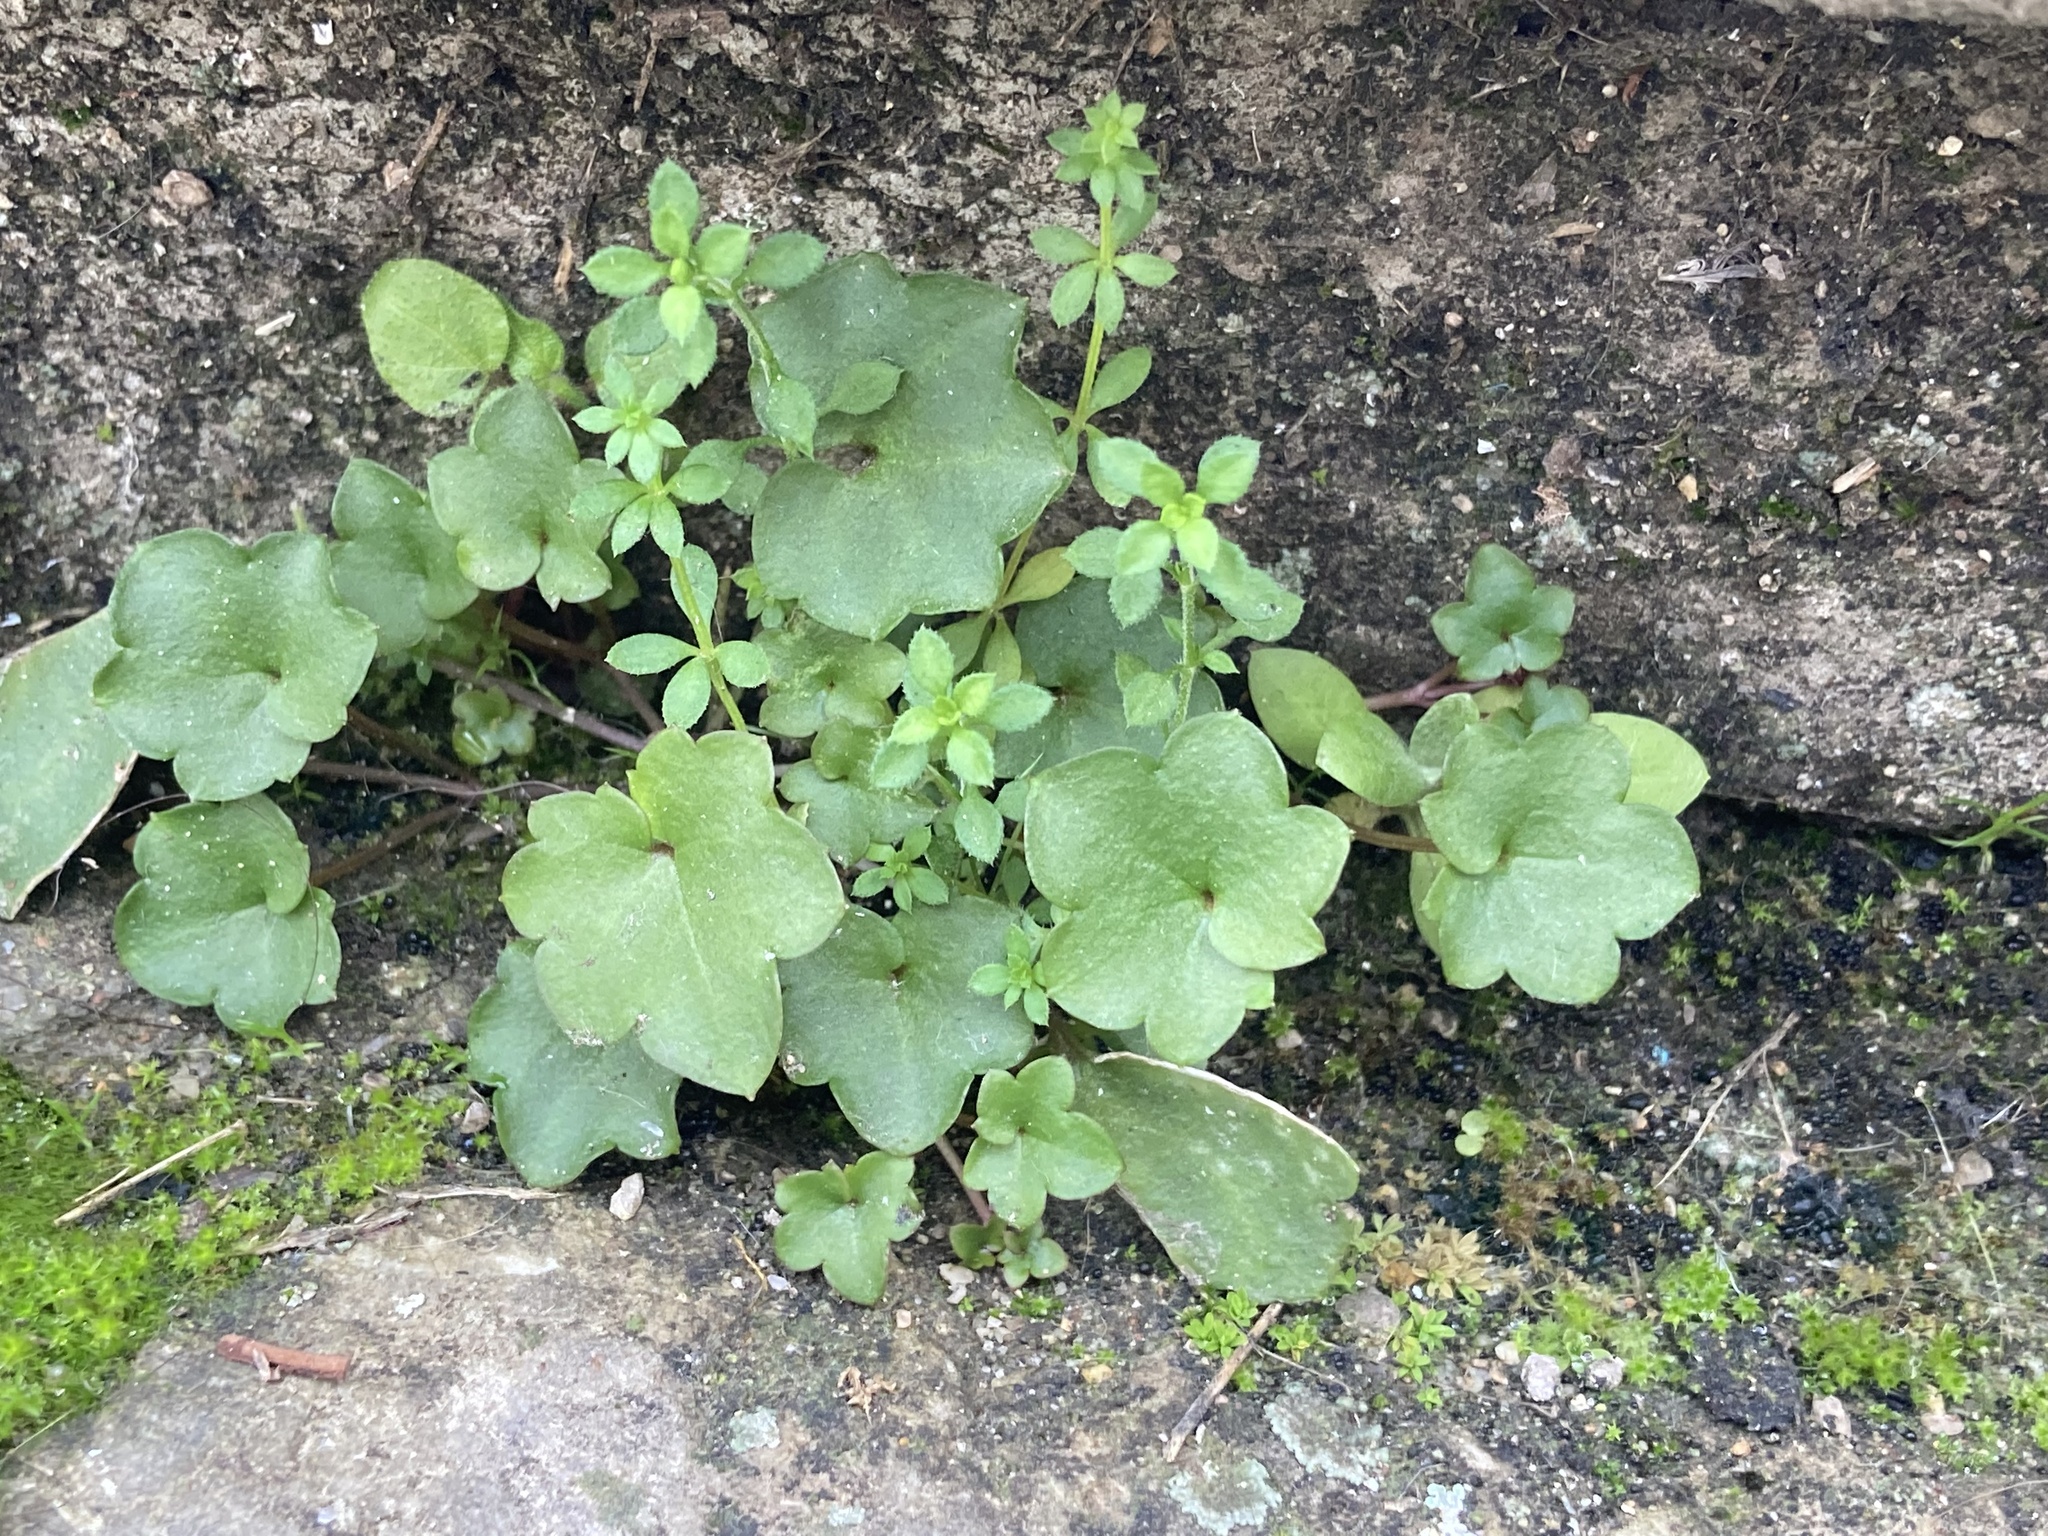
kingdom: Plantae
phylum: Tracheophyta
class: Magnoliopsida
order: Lamiales
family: Plantaginaceae
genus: Cymbalaria
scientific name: Cymbalaria muralis
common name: Ivy-leaved toadflax
